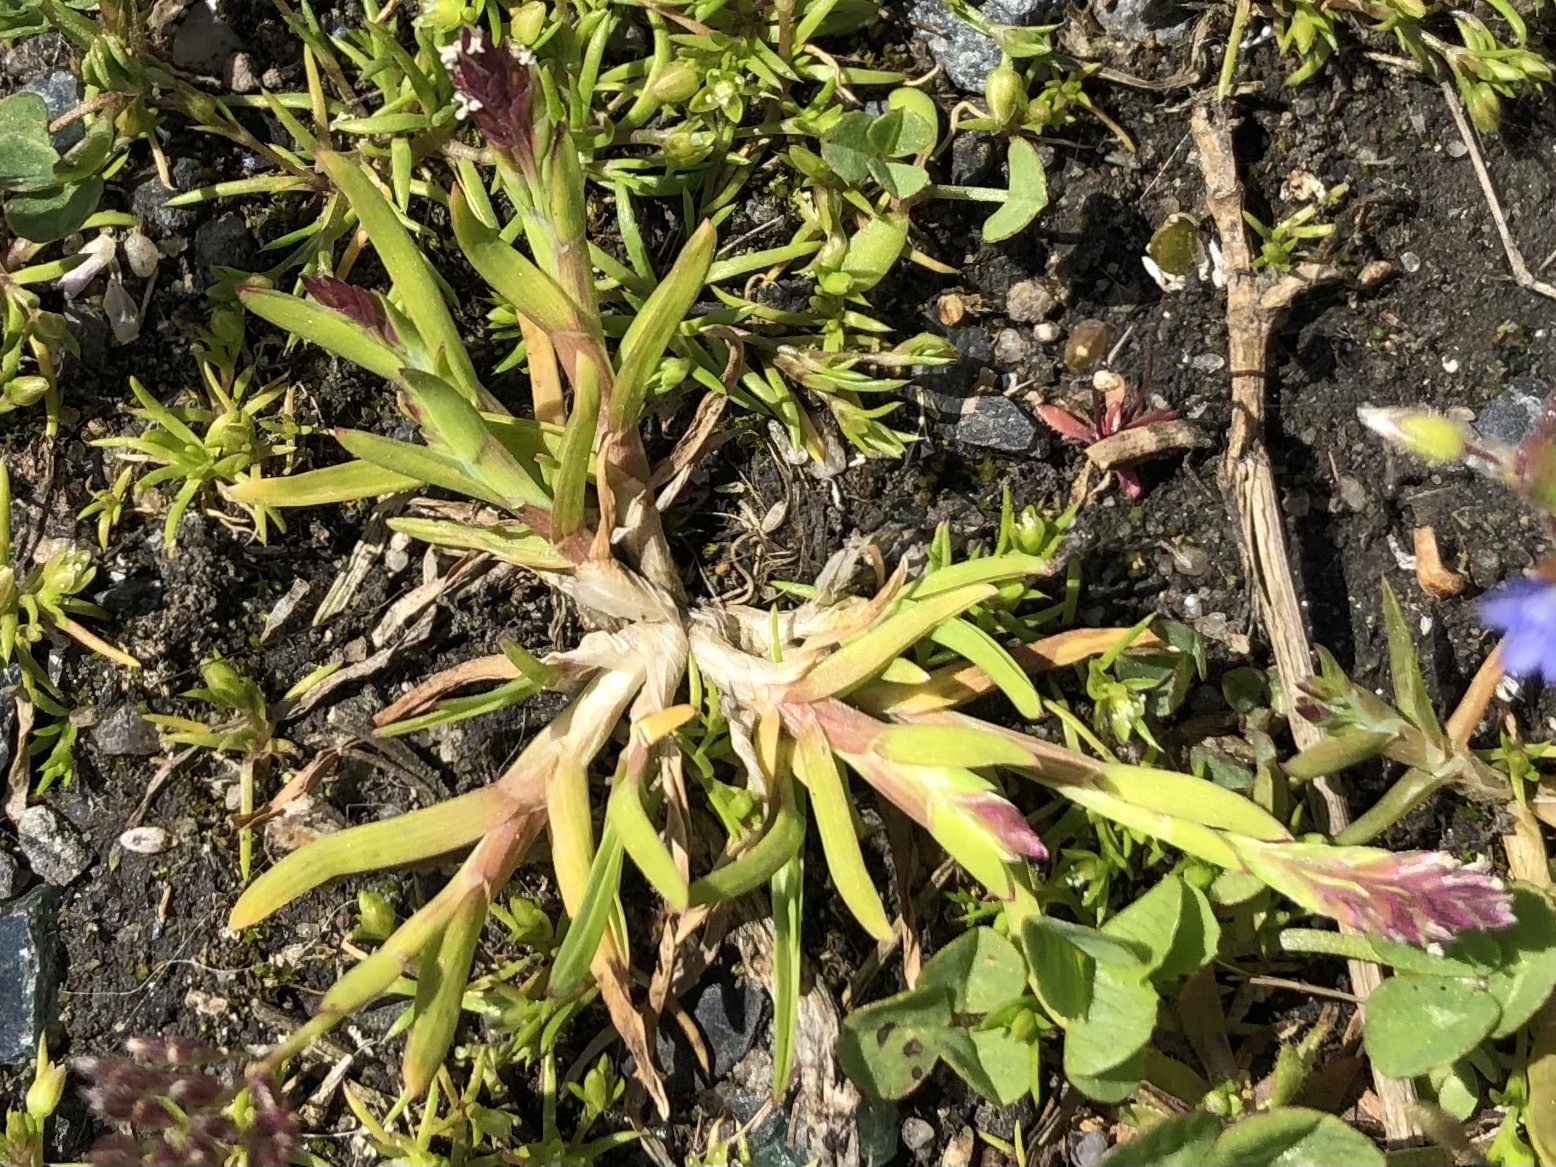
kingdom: Plantae
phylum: Tracheophyta
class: Liliopsida
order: Poales
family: Poaceae
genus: Poa
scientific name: Poa annua
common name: Annual bluegrass
